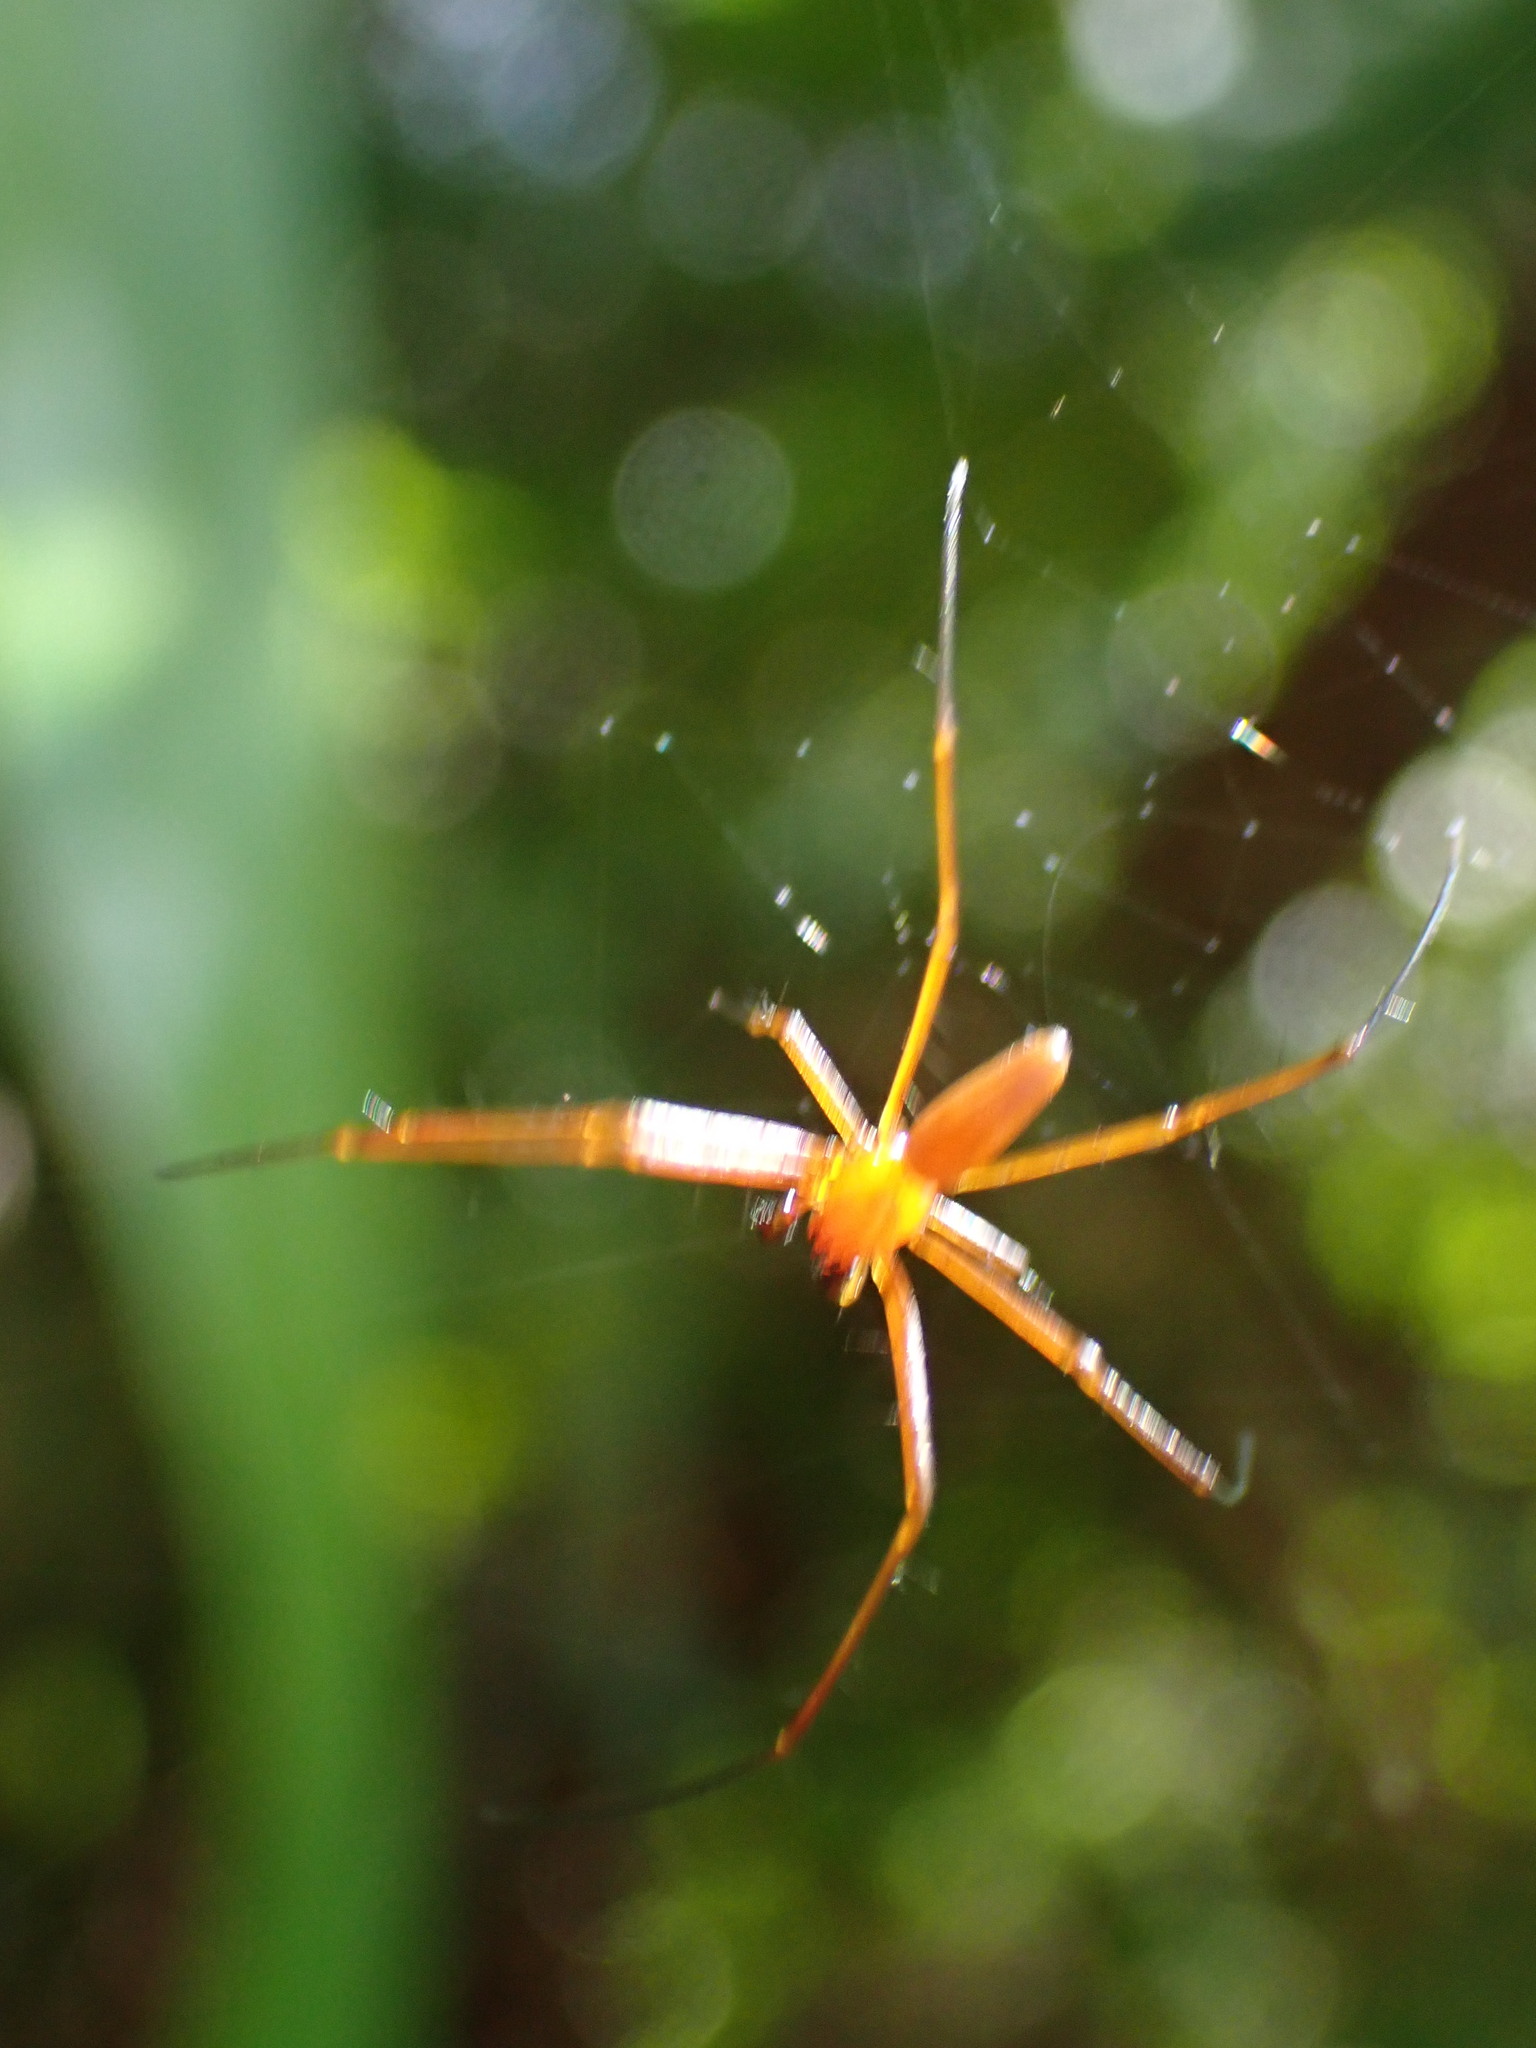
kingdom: Animalia
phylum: Arthropoda
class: Arachnida
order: Araneae
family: Araneidae
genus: Nephila
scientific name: Nephila pilipes
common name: Giant golden orb weaver
